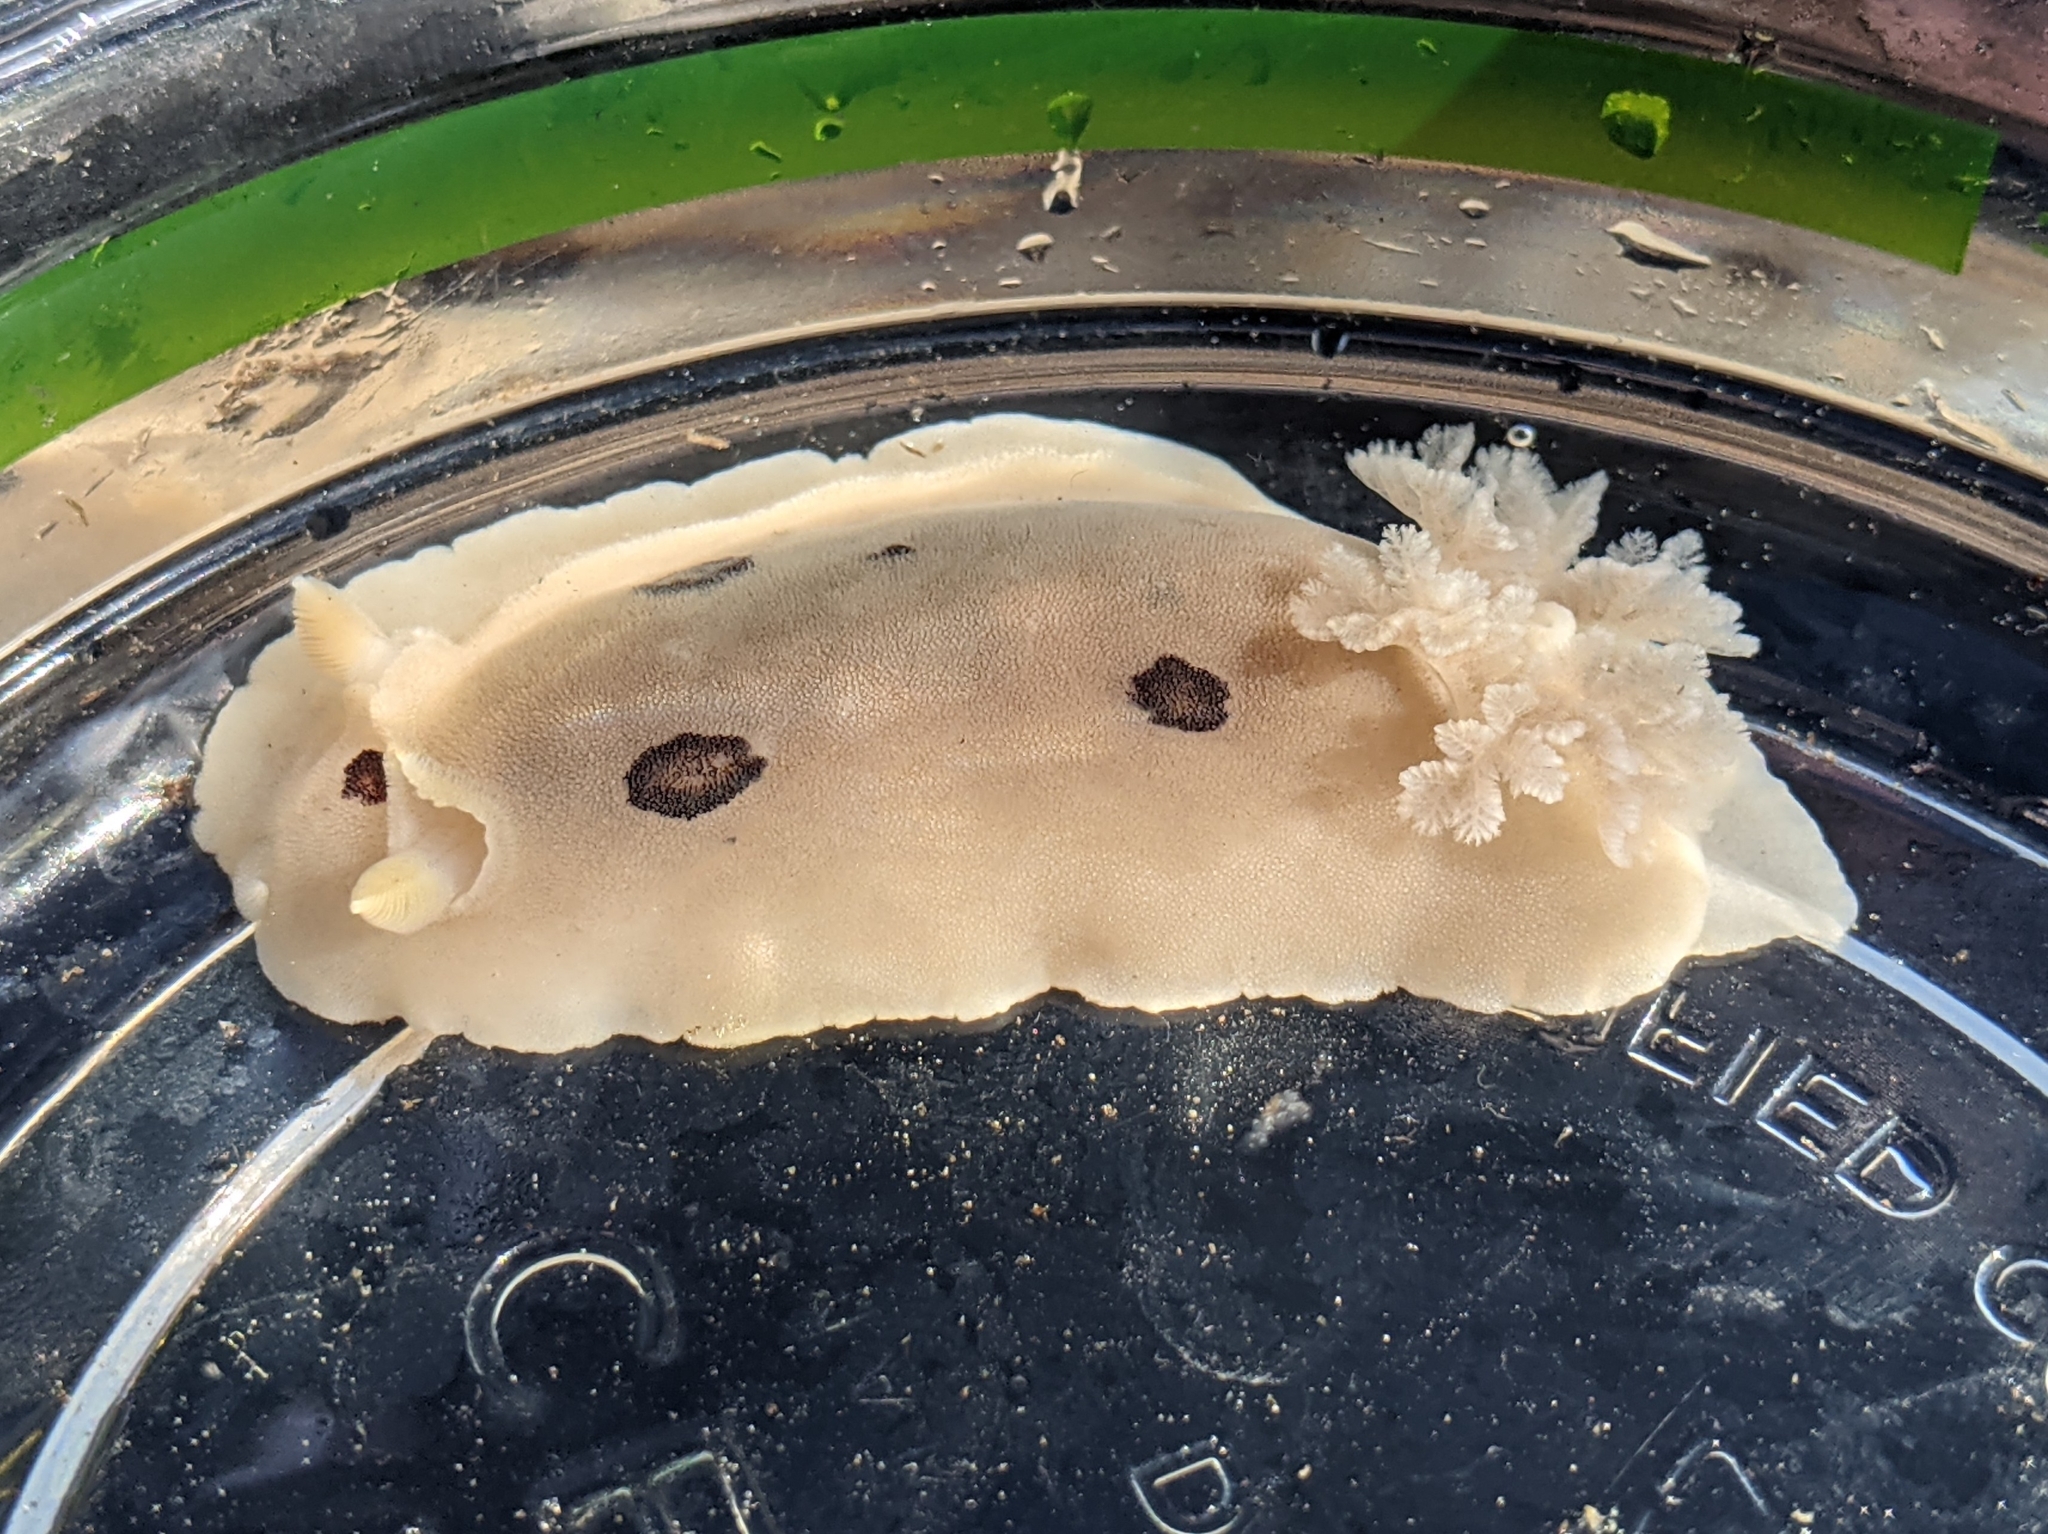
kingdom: Animalia
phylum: Mollusca
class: Gastropoda
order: Nudibranchia
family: Discodorididae
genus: Diaulula
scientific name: Diaulula sandiegensis
